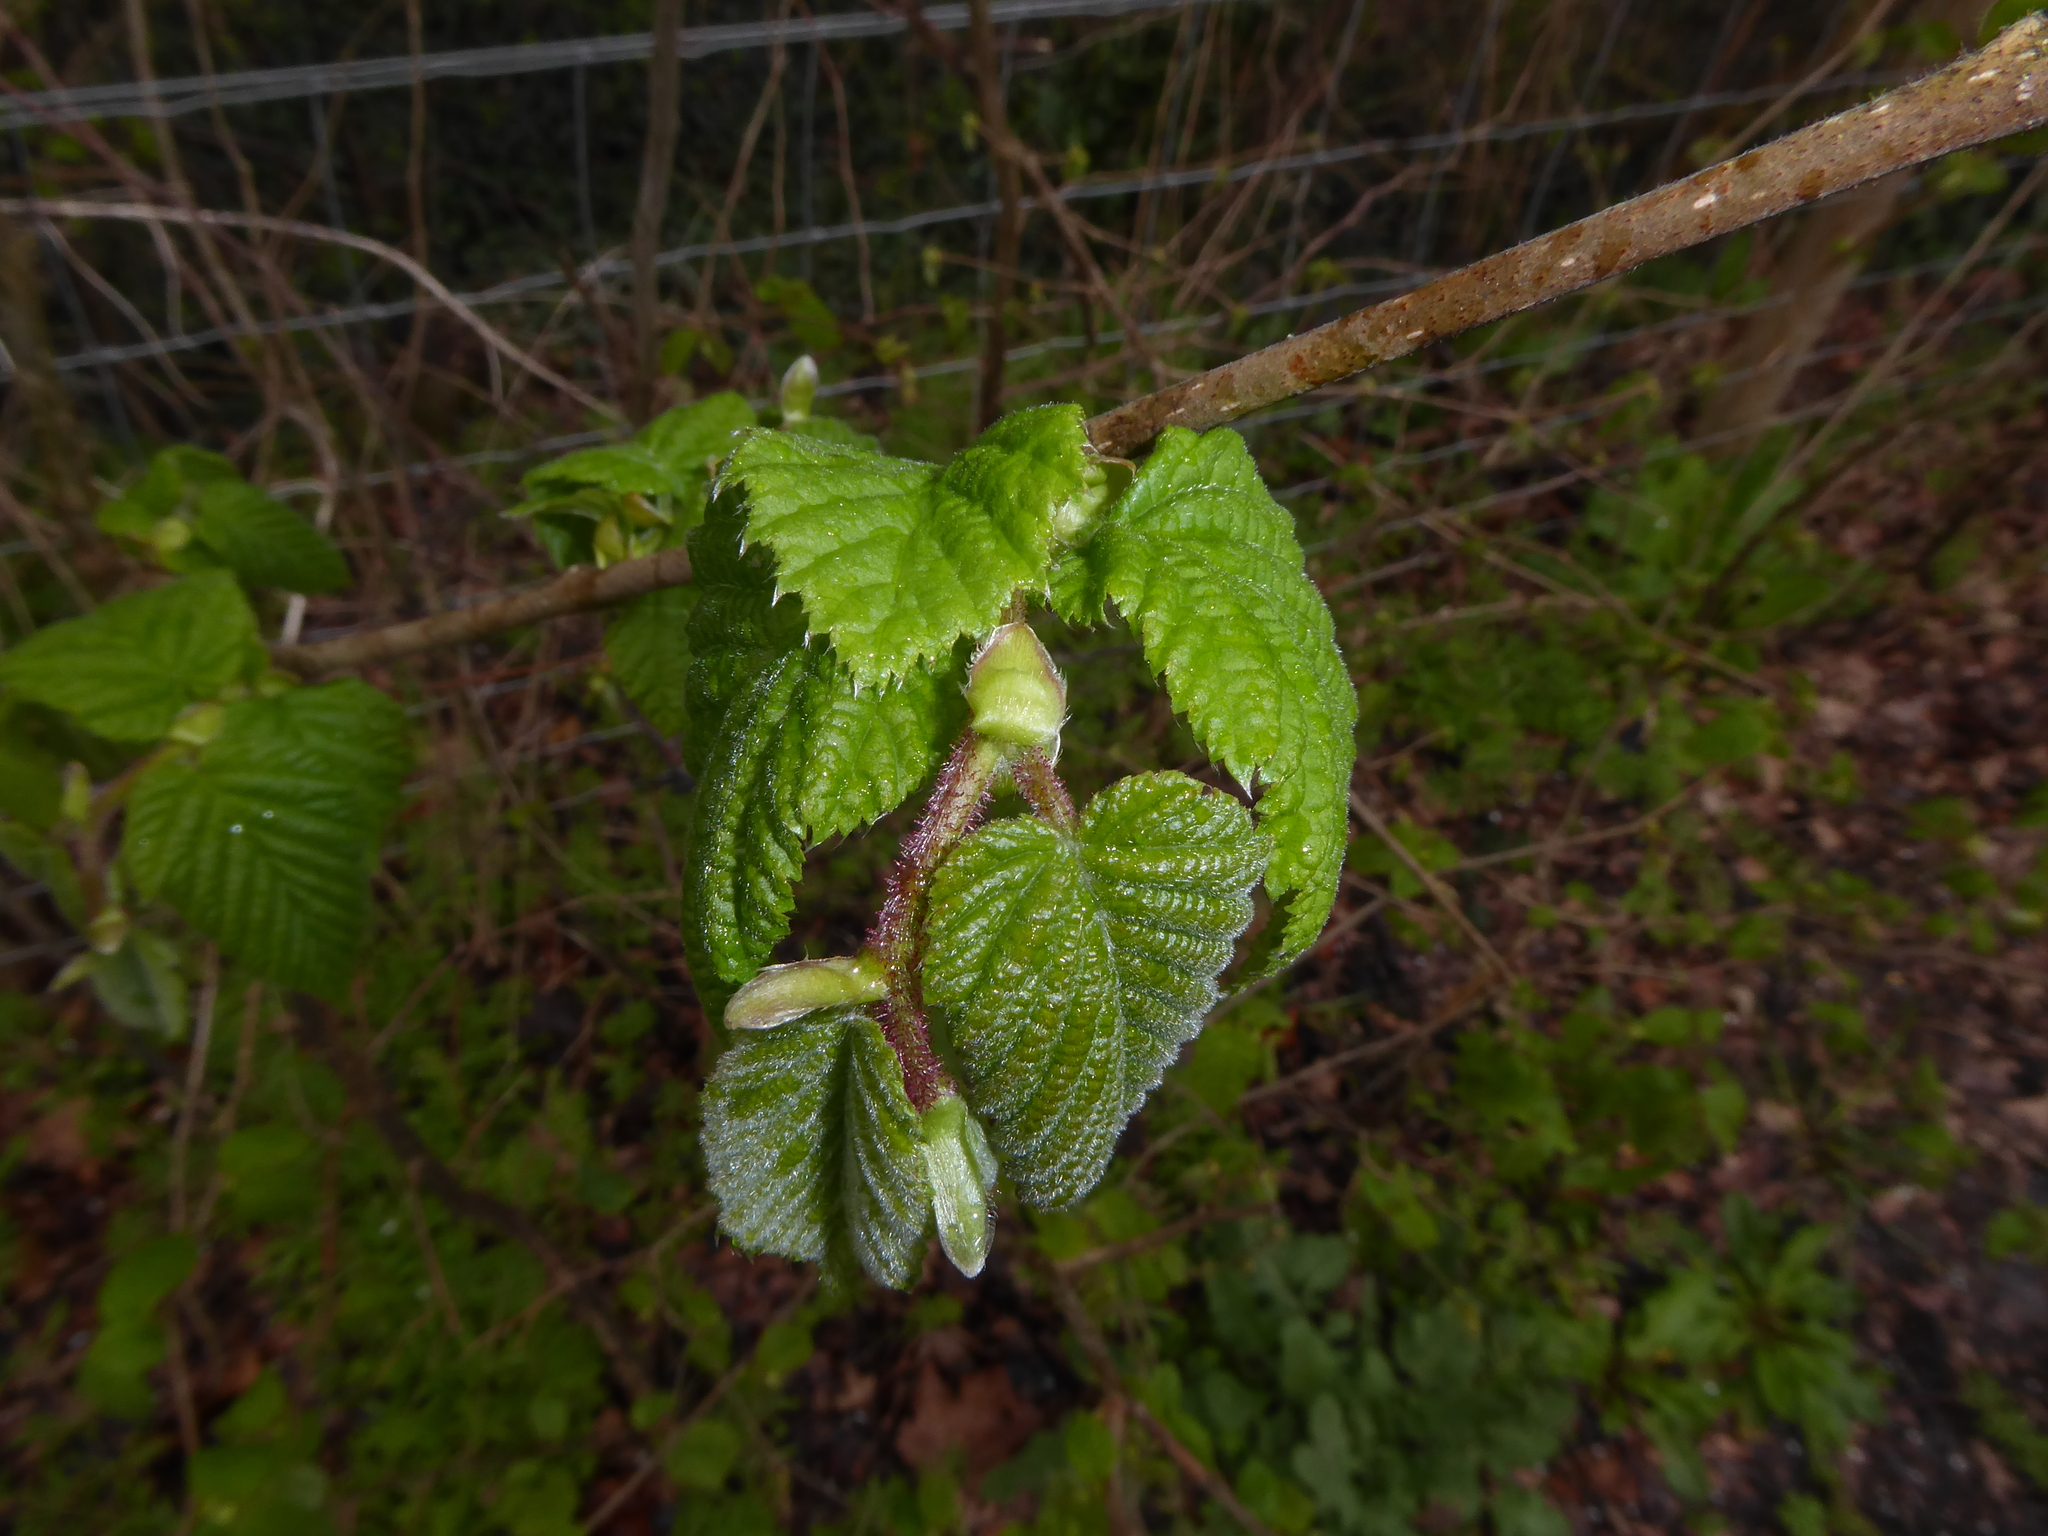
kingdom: Plantae
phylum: Tracheophyta
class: Magnoliopsida
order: Fagales
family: Betulaceae
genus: Corylus
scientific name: Corylus avellana
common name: European hazel
